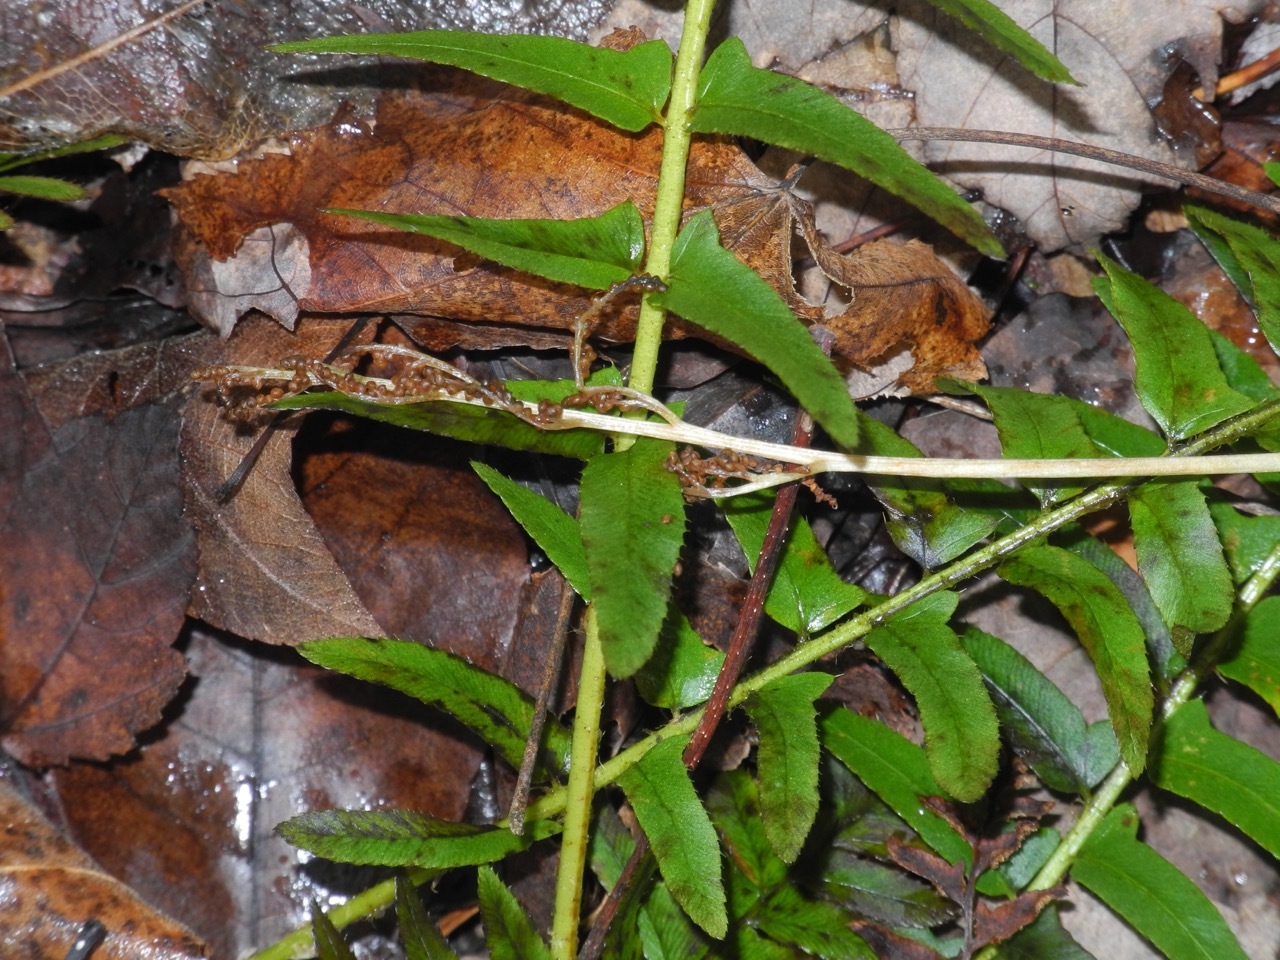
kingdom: Plantae
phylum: Tracheophyta
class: Polypodiopsida
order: Ophioglossales
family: Ophioglossaceae
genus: Sceptridium
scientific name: Sceptridium biternatum
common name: Sparse-lobed grapefern
